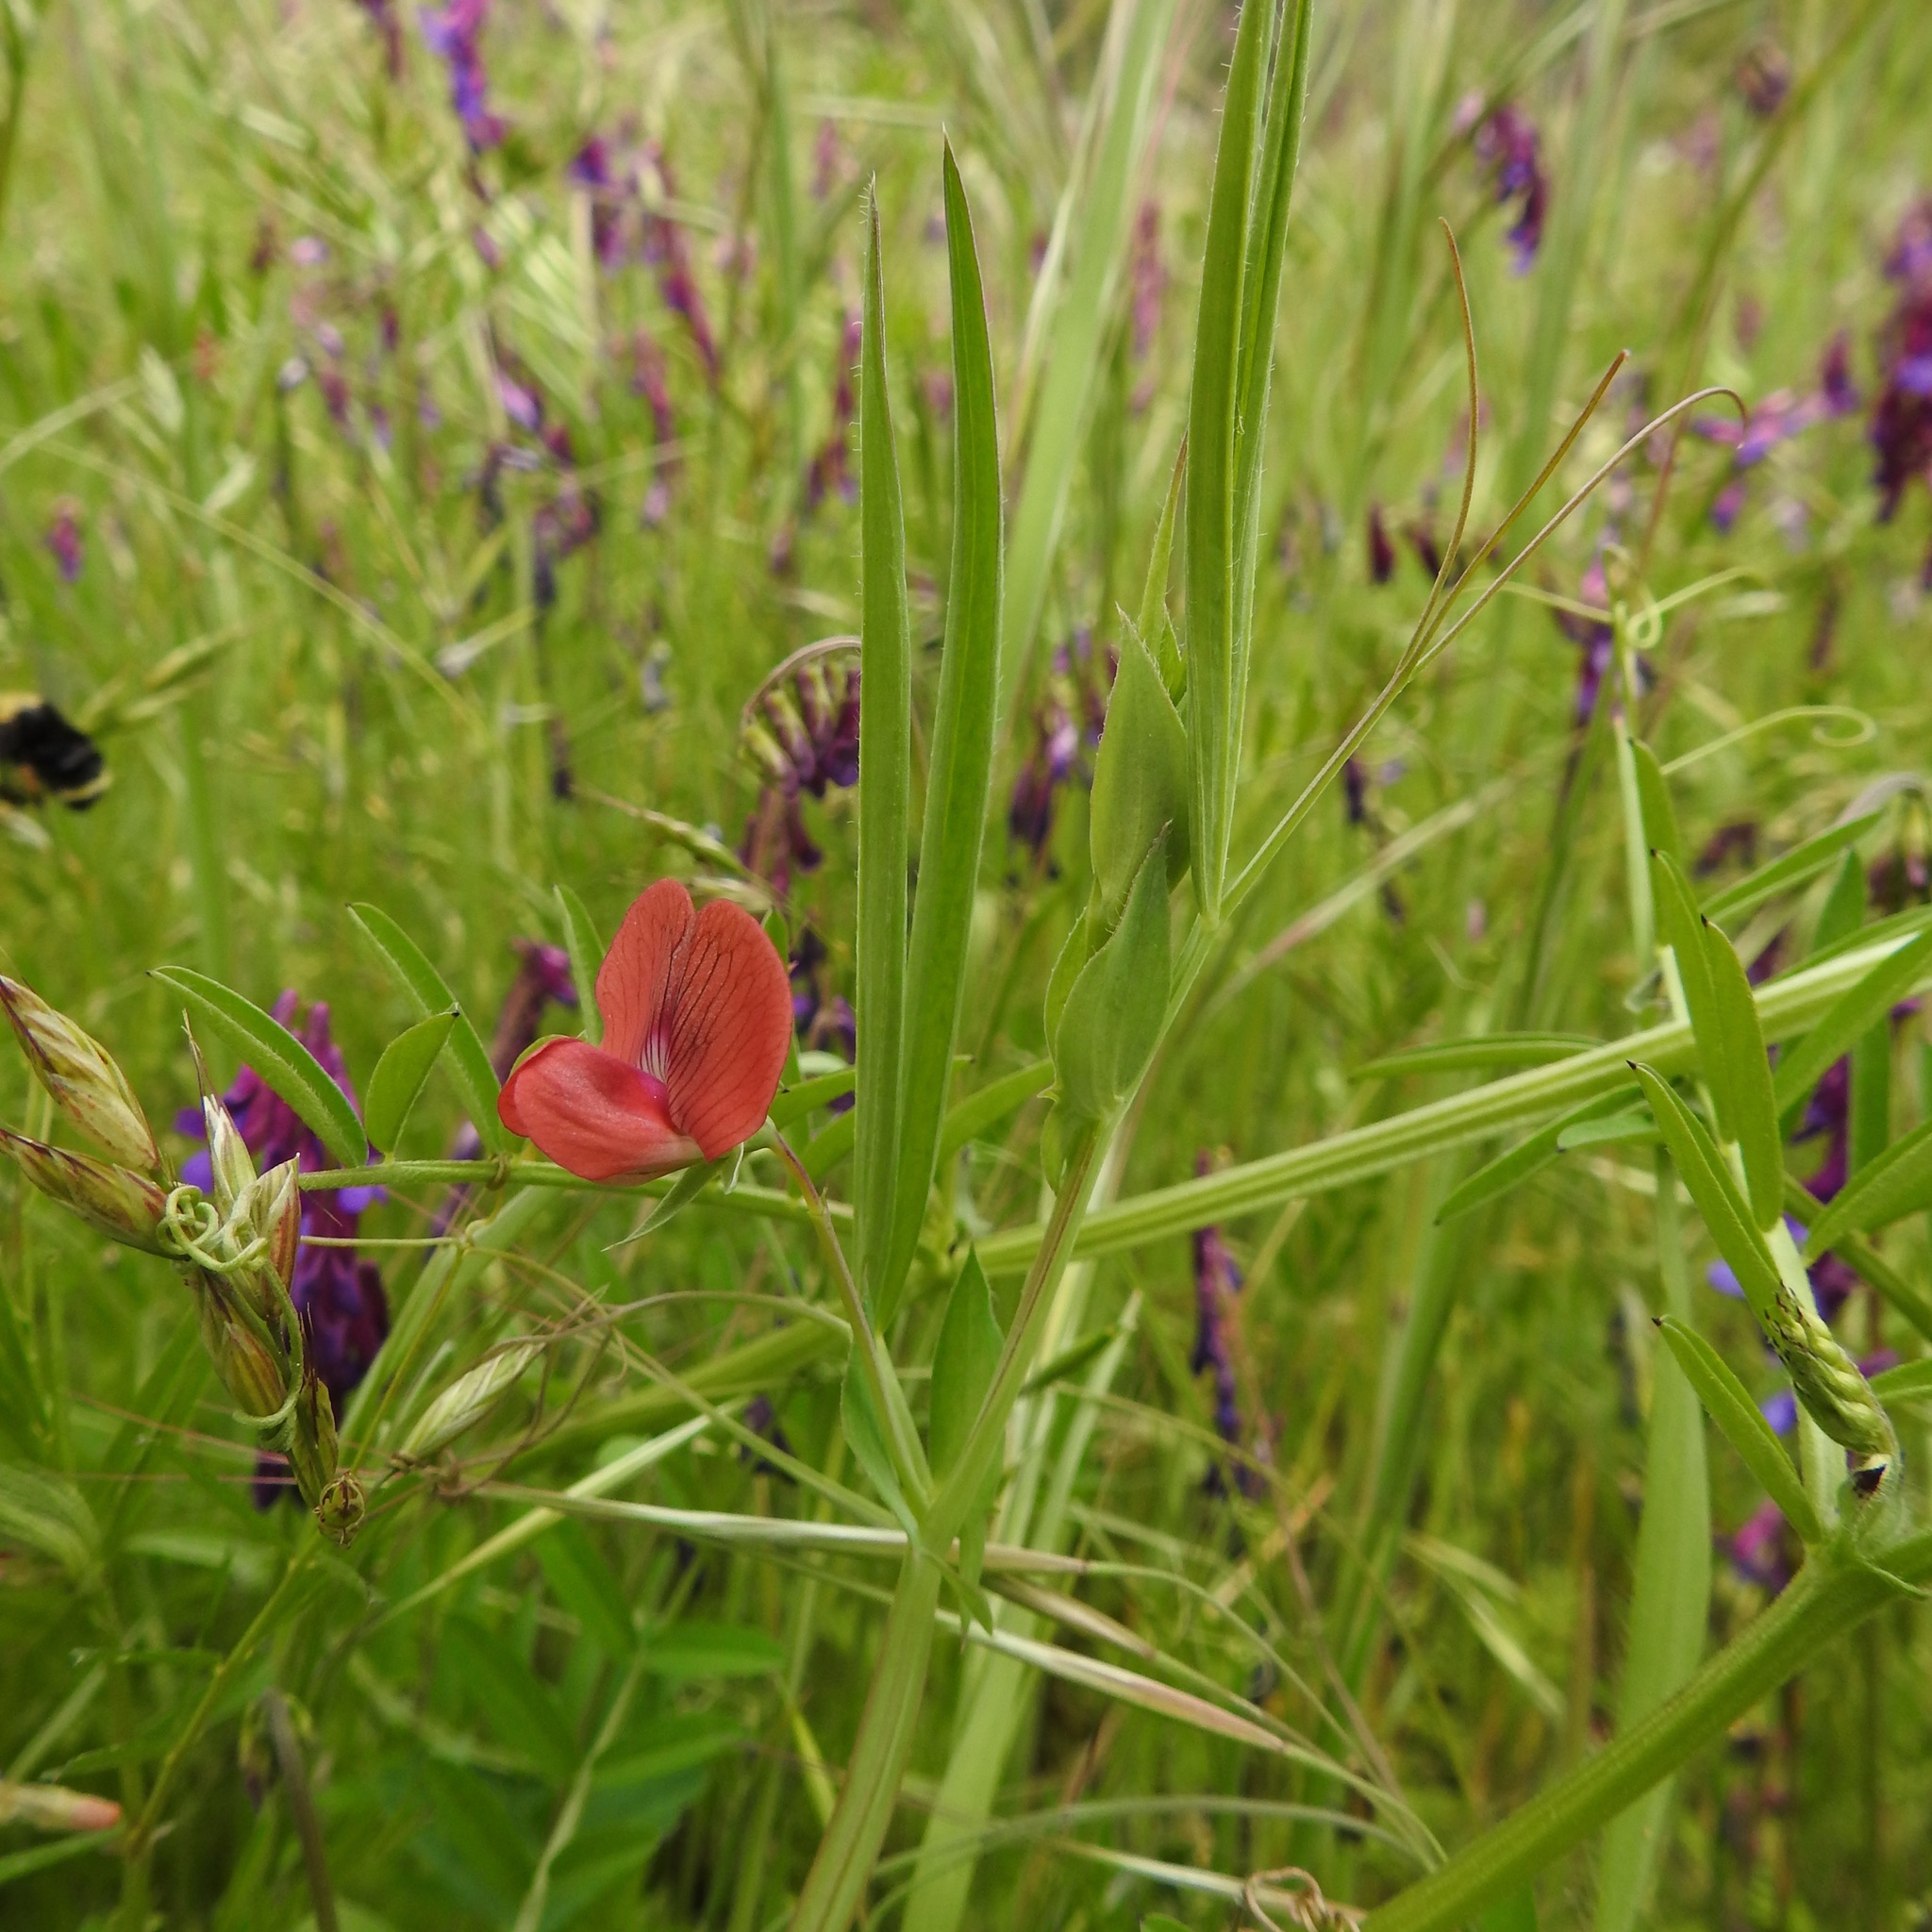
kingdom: Plantae
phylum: Tracheophyta
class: Magnoliopsida
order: Fabales
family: Fabaceae
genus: Lathyrus
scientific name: Lathyrus sphaericus
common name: Grass pea
